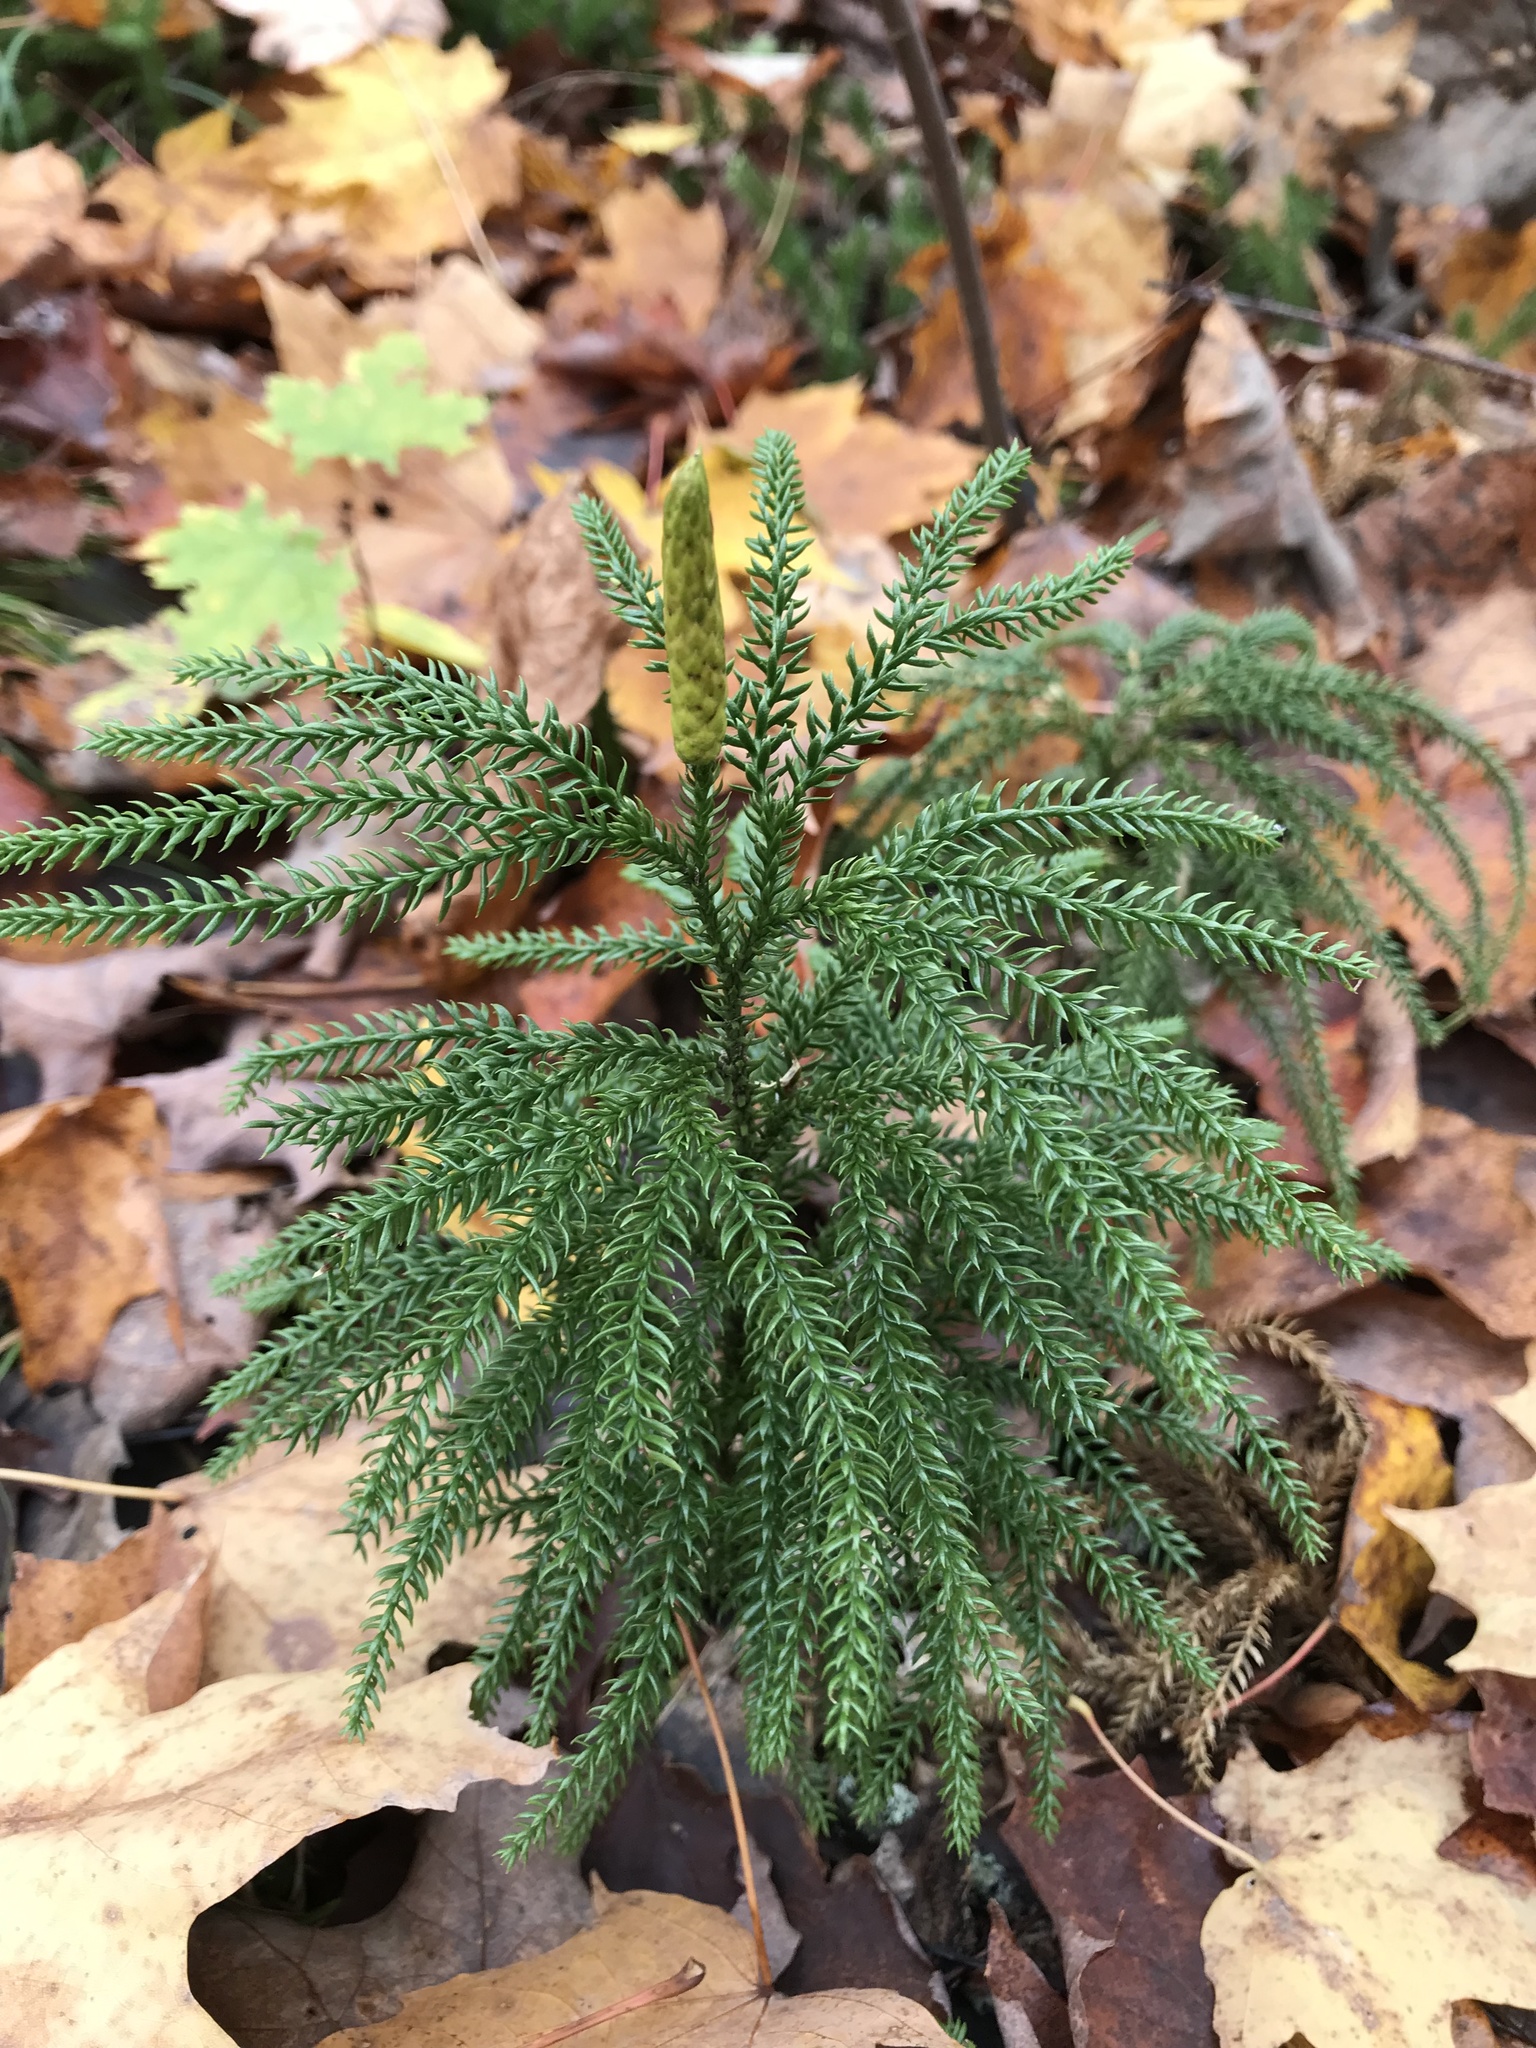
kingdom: Plantae
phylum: Tracheophyta
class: Lycopodiopsida
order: Lycopodiales
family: Lycopodiaceae
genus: Dendrolycopodium
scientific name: Dendrolycopodium dendroideum
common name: Northern tree-clubmoss
